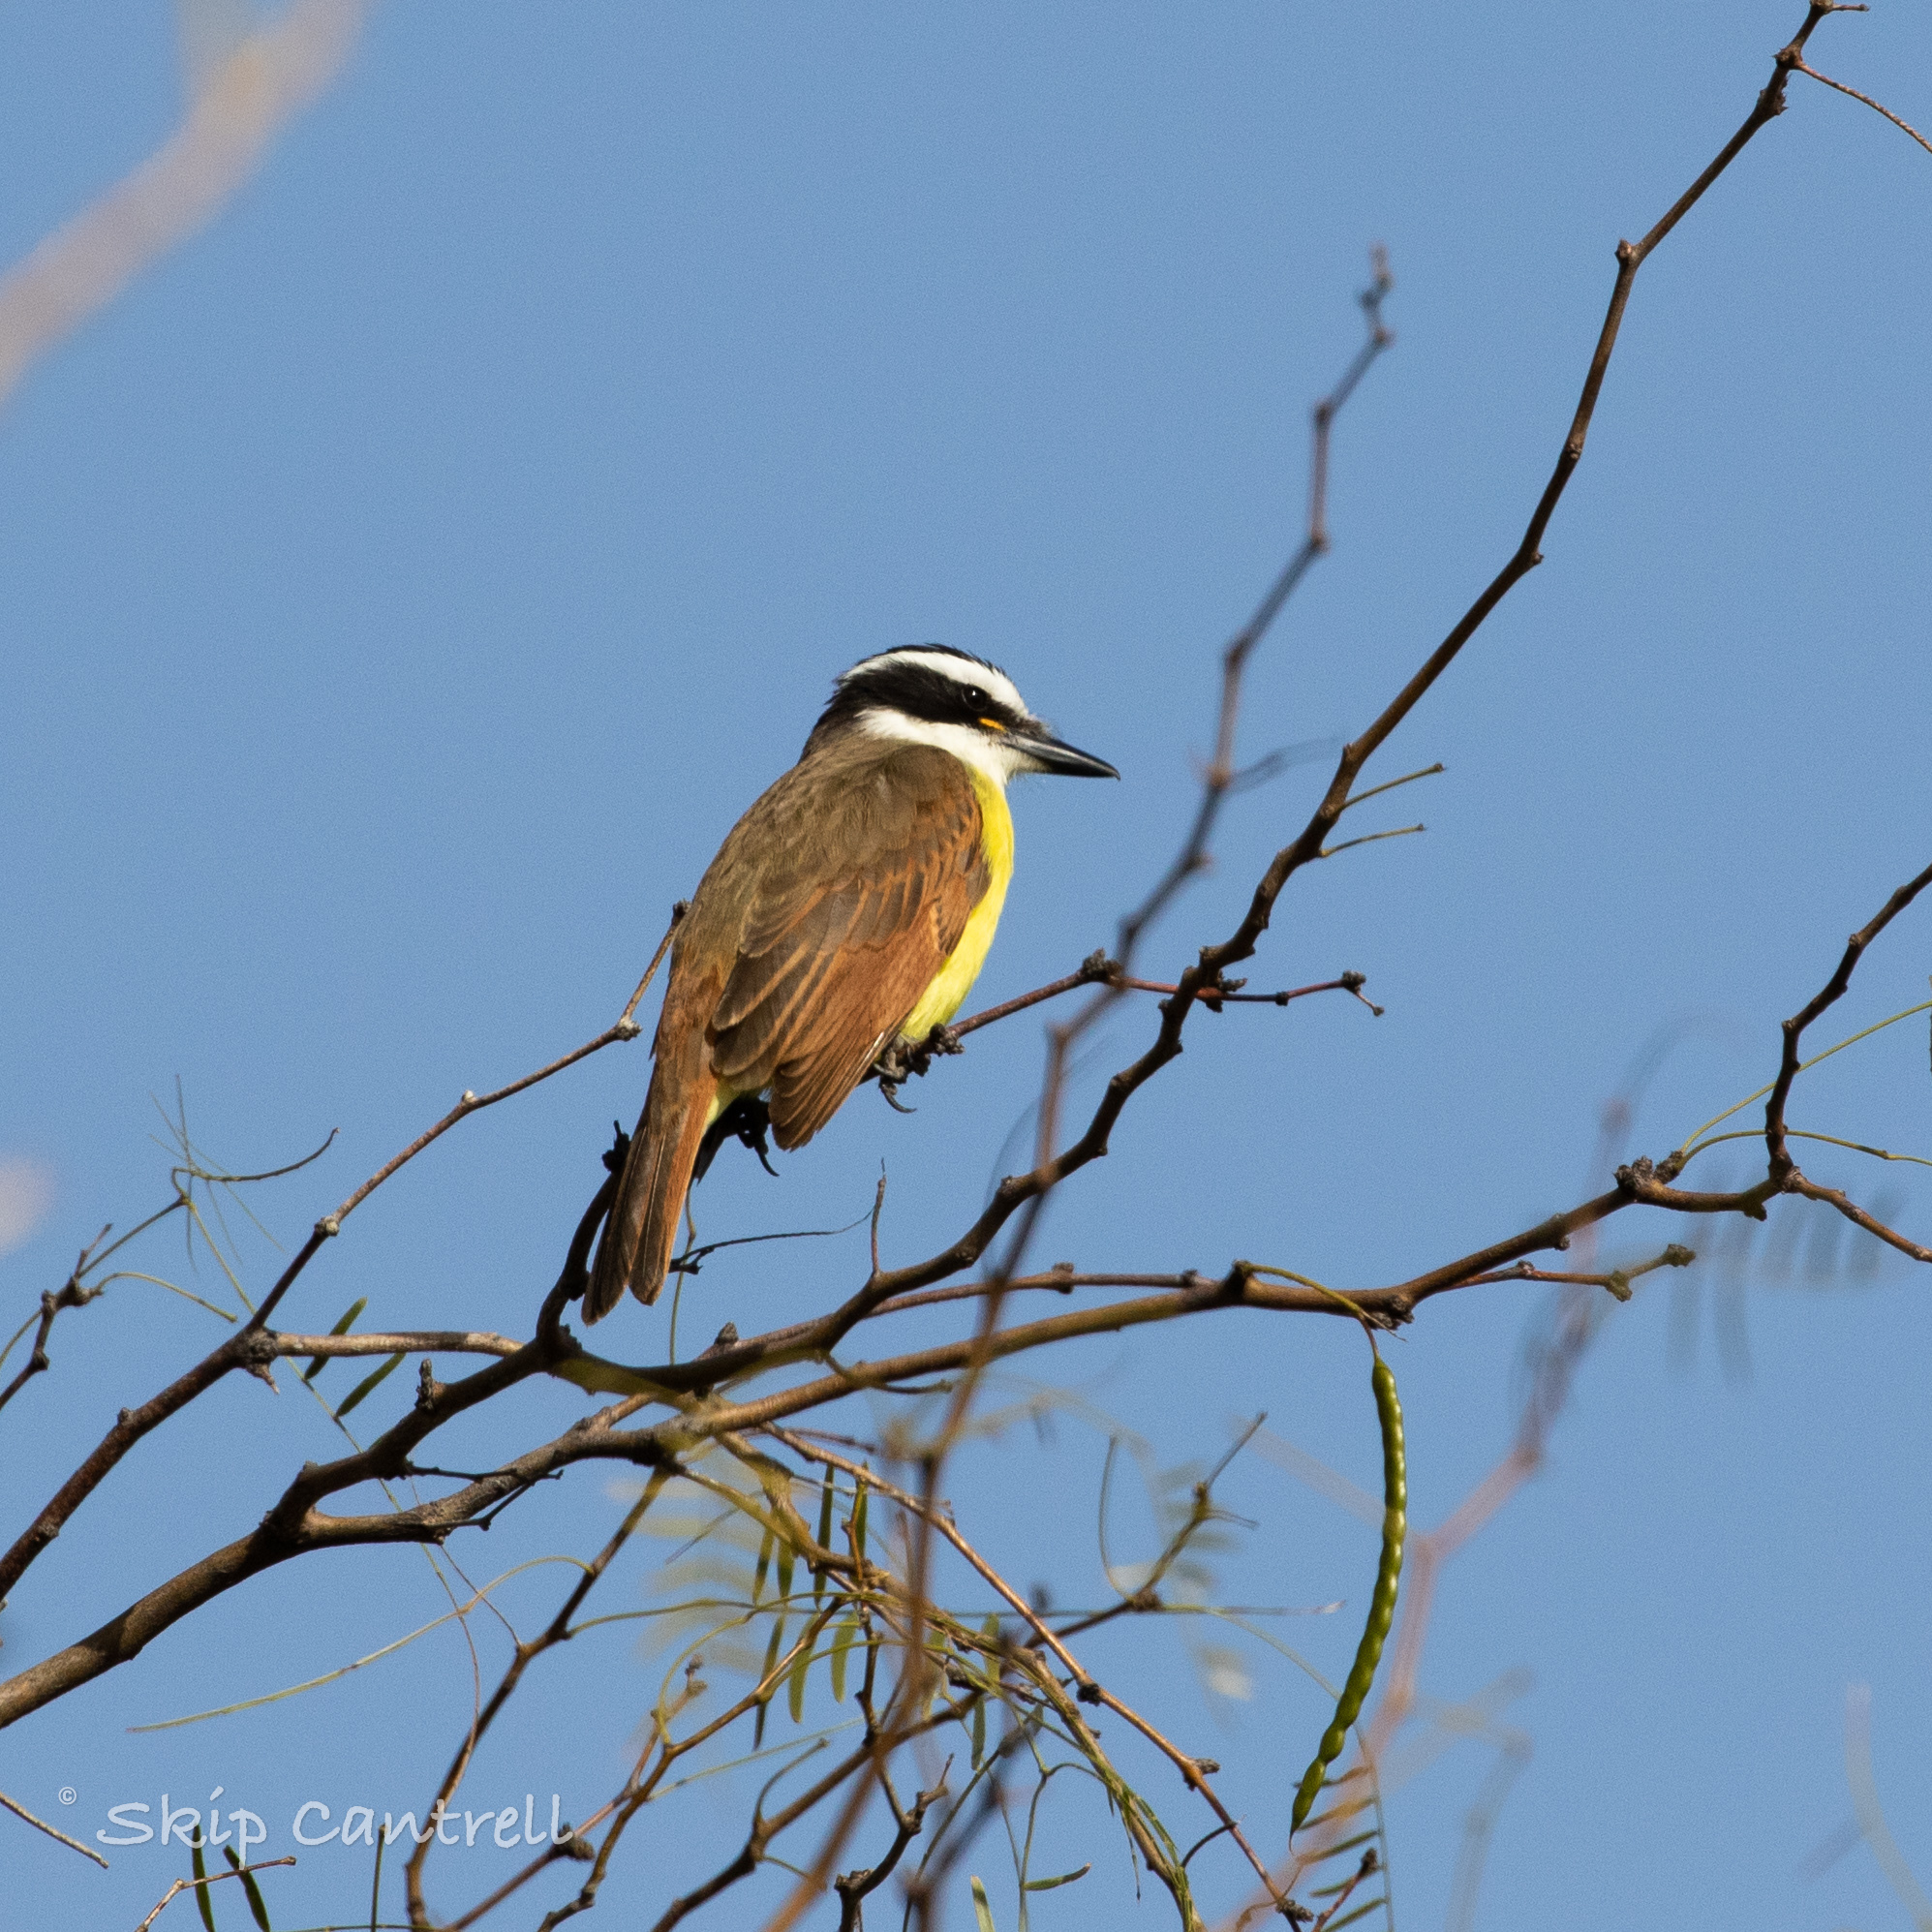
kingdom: Animalia
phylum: Chordata
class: Aves
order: Passeriformes
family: Tyrannidae
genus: Pitangus
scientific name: Pitangus sulphuratus
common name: Great kiskadee
